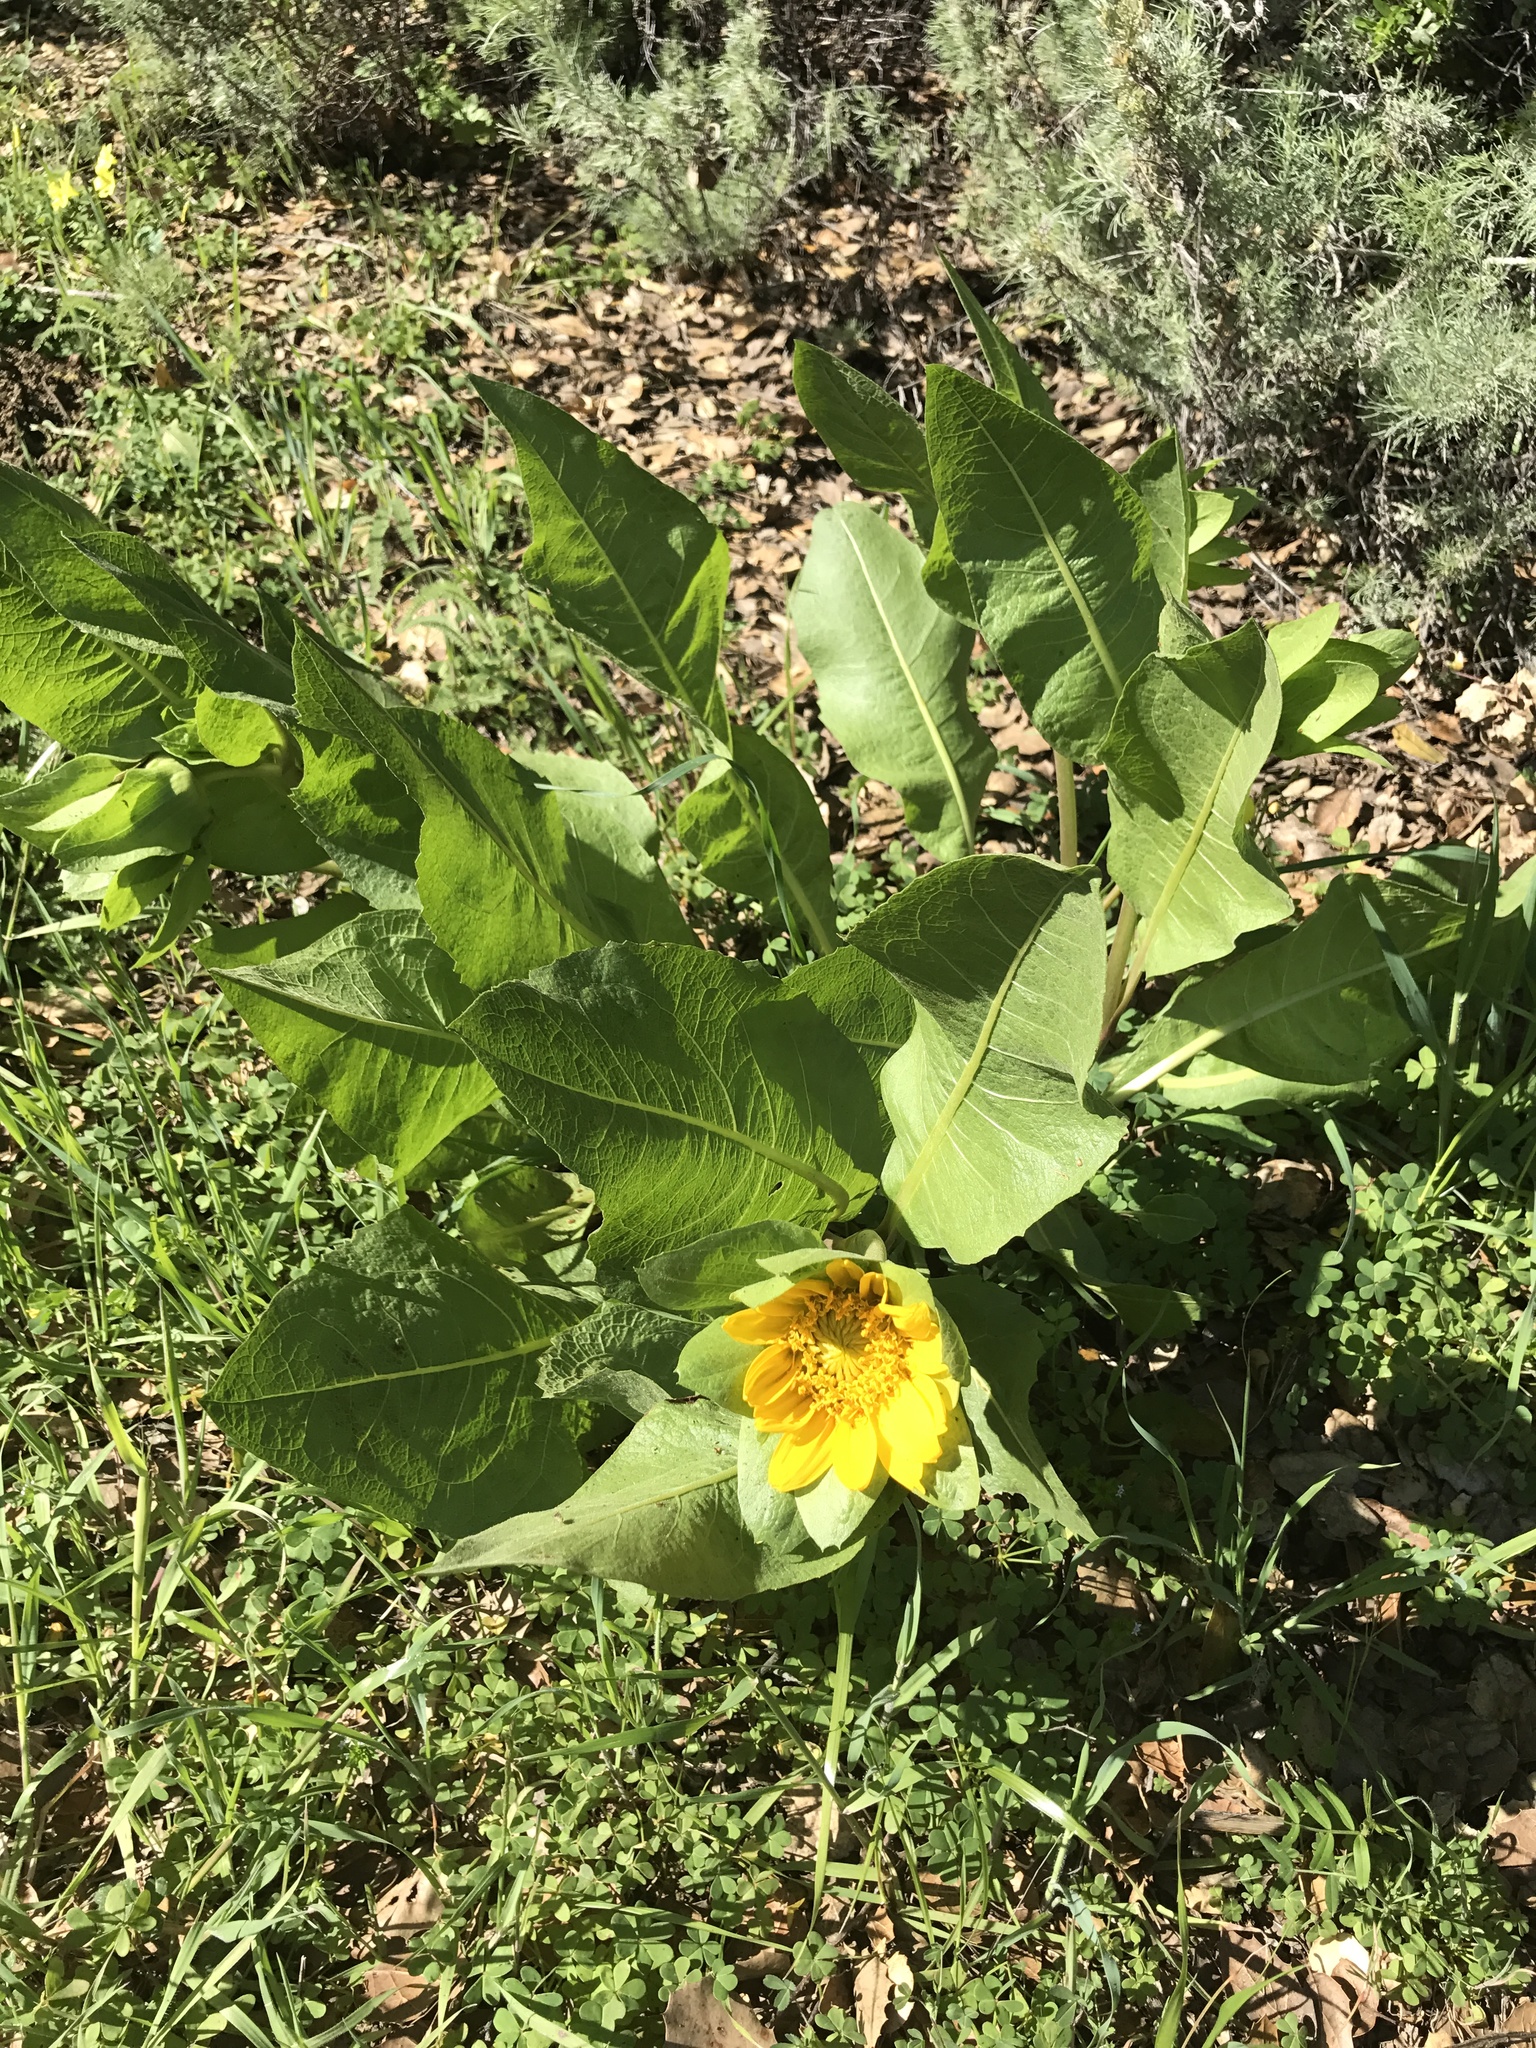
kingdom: Plantae
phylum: Tracheophyta
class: Magnoliopsida
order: Asterales
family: Asteraceae
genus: Wyethia
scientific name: Wyethia glabra
